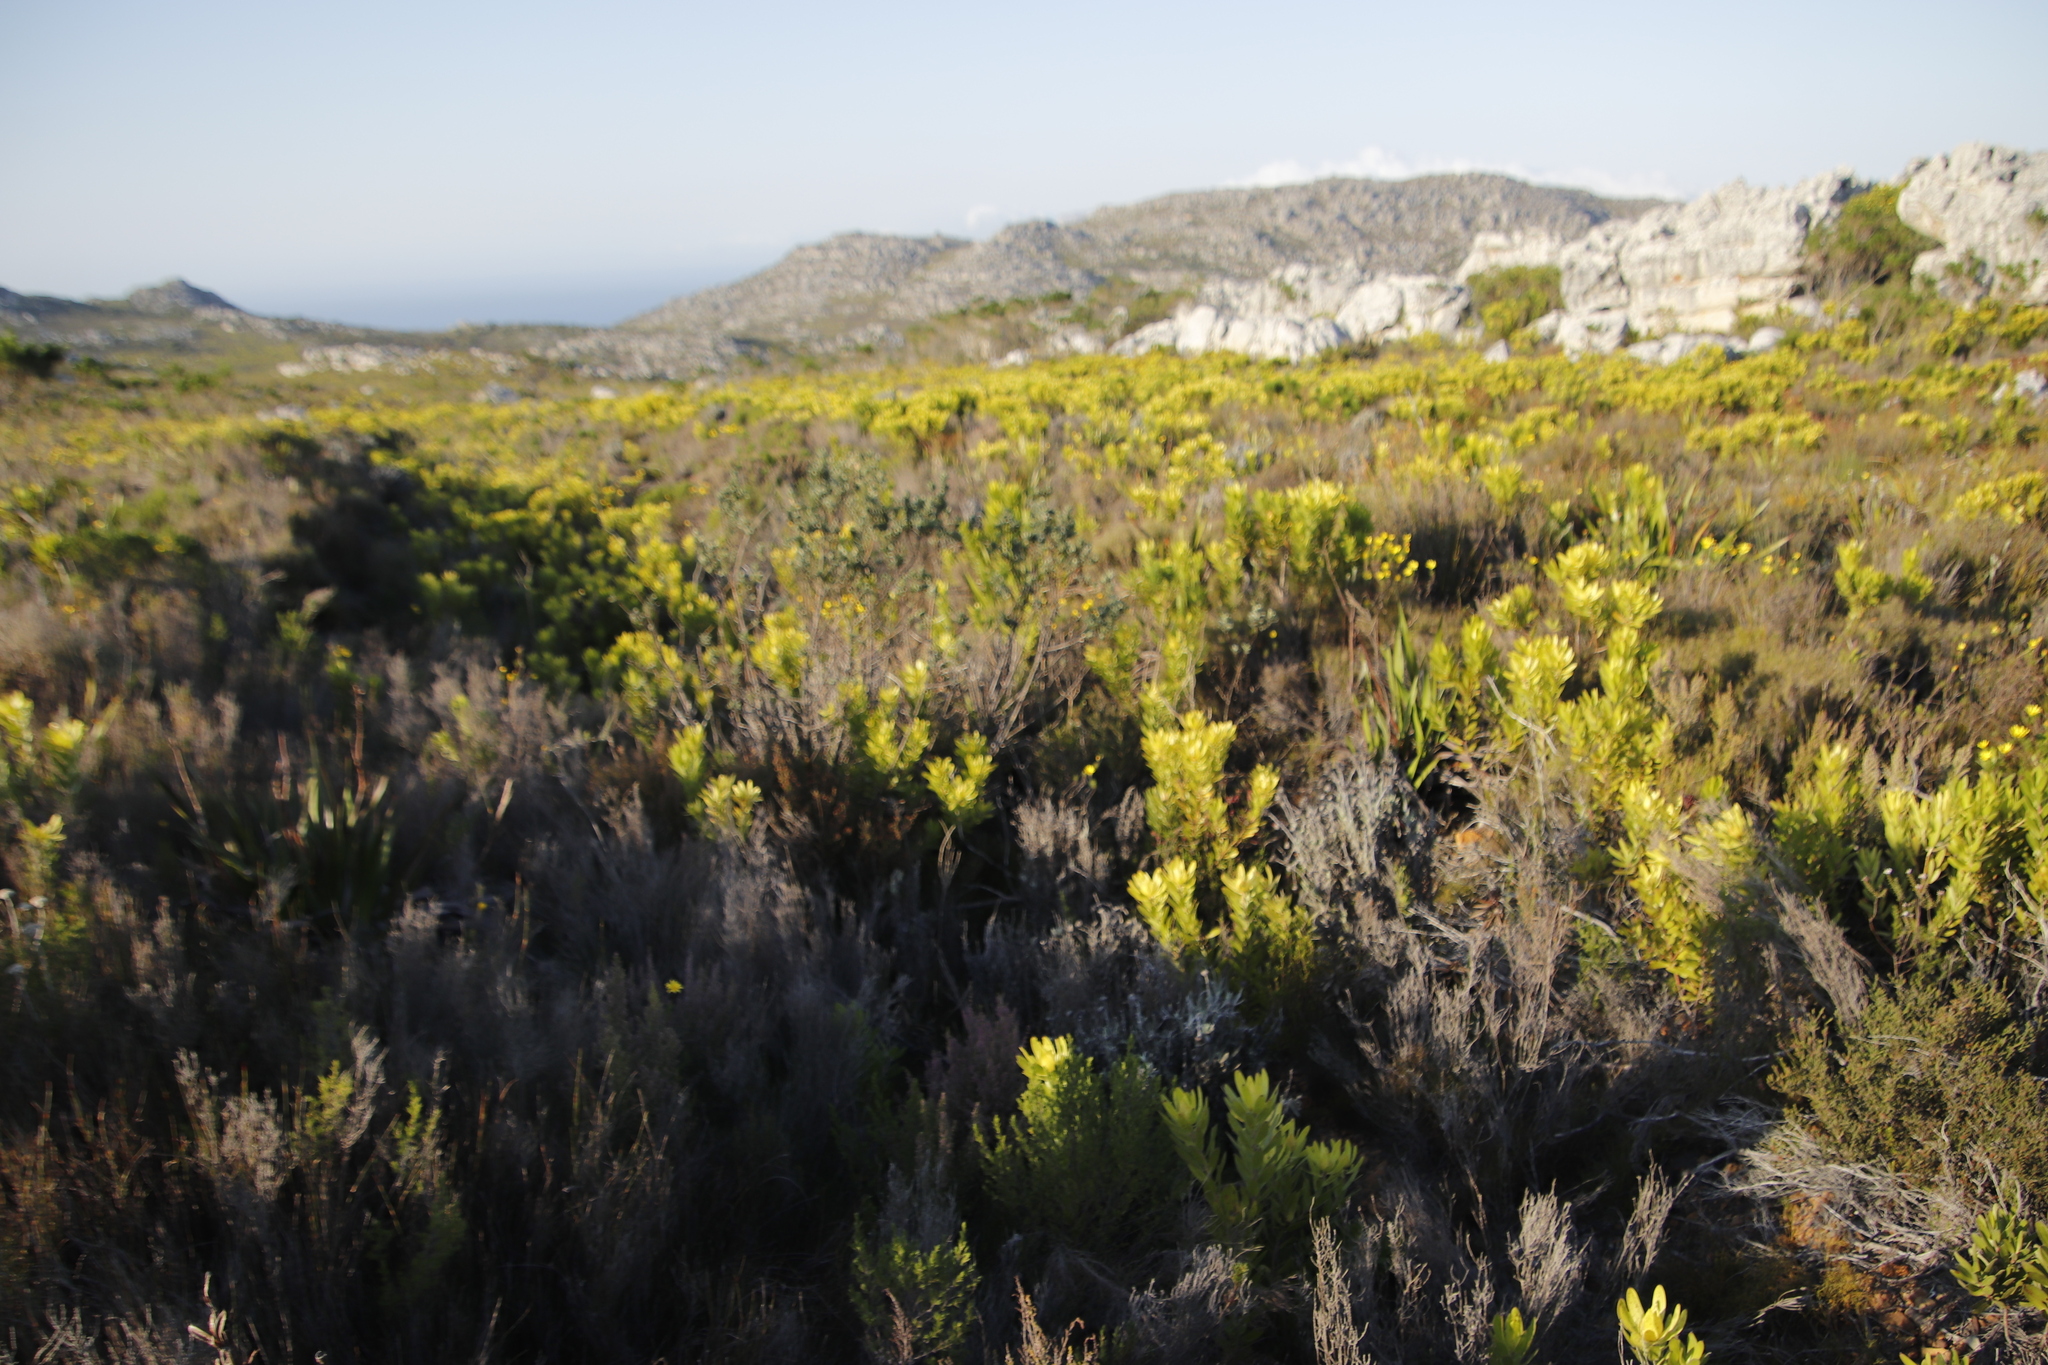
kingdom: Plantae
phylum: Tracheophyta
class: Magnoliopsida
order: Fabales
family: Fabaceae
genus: Podalyria
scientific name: Podalyria calyptrata
